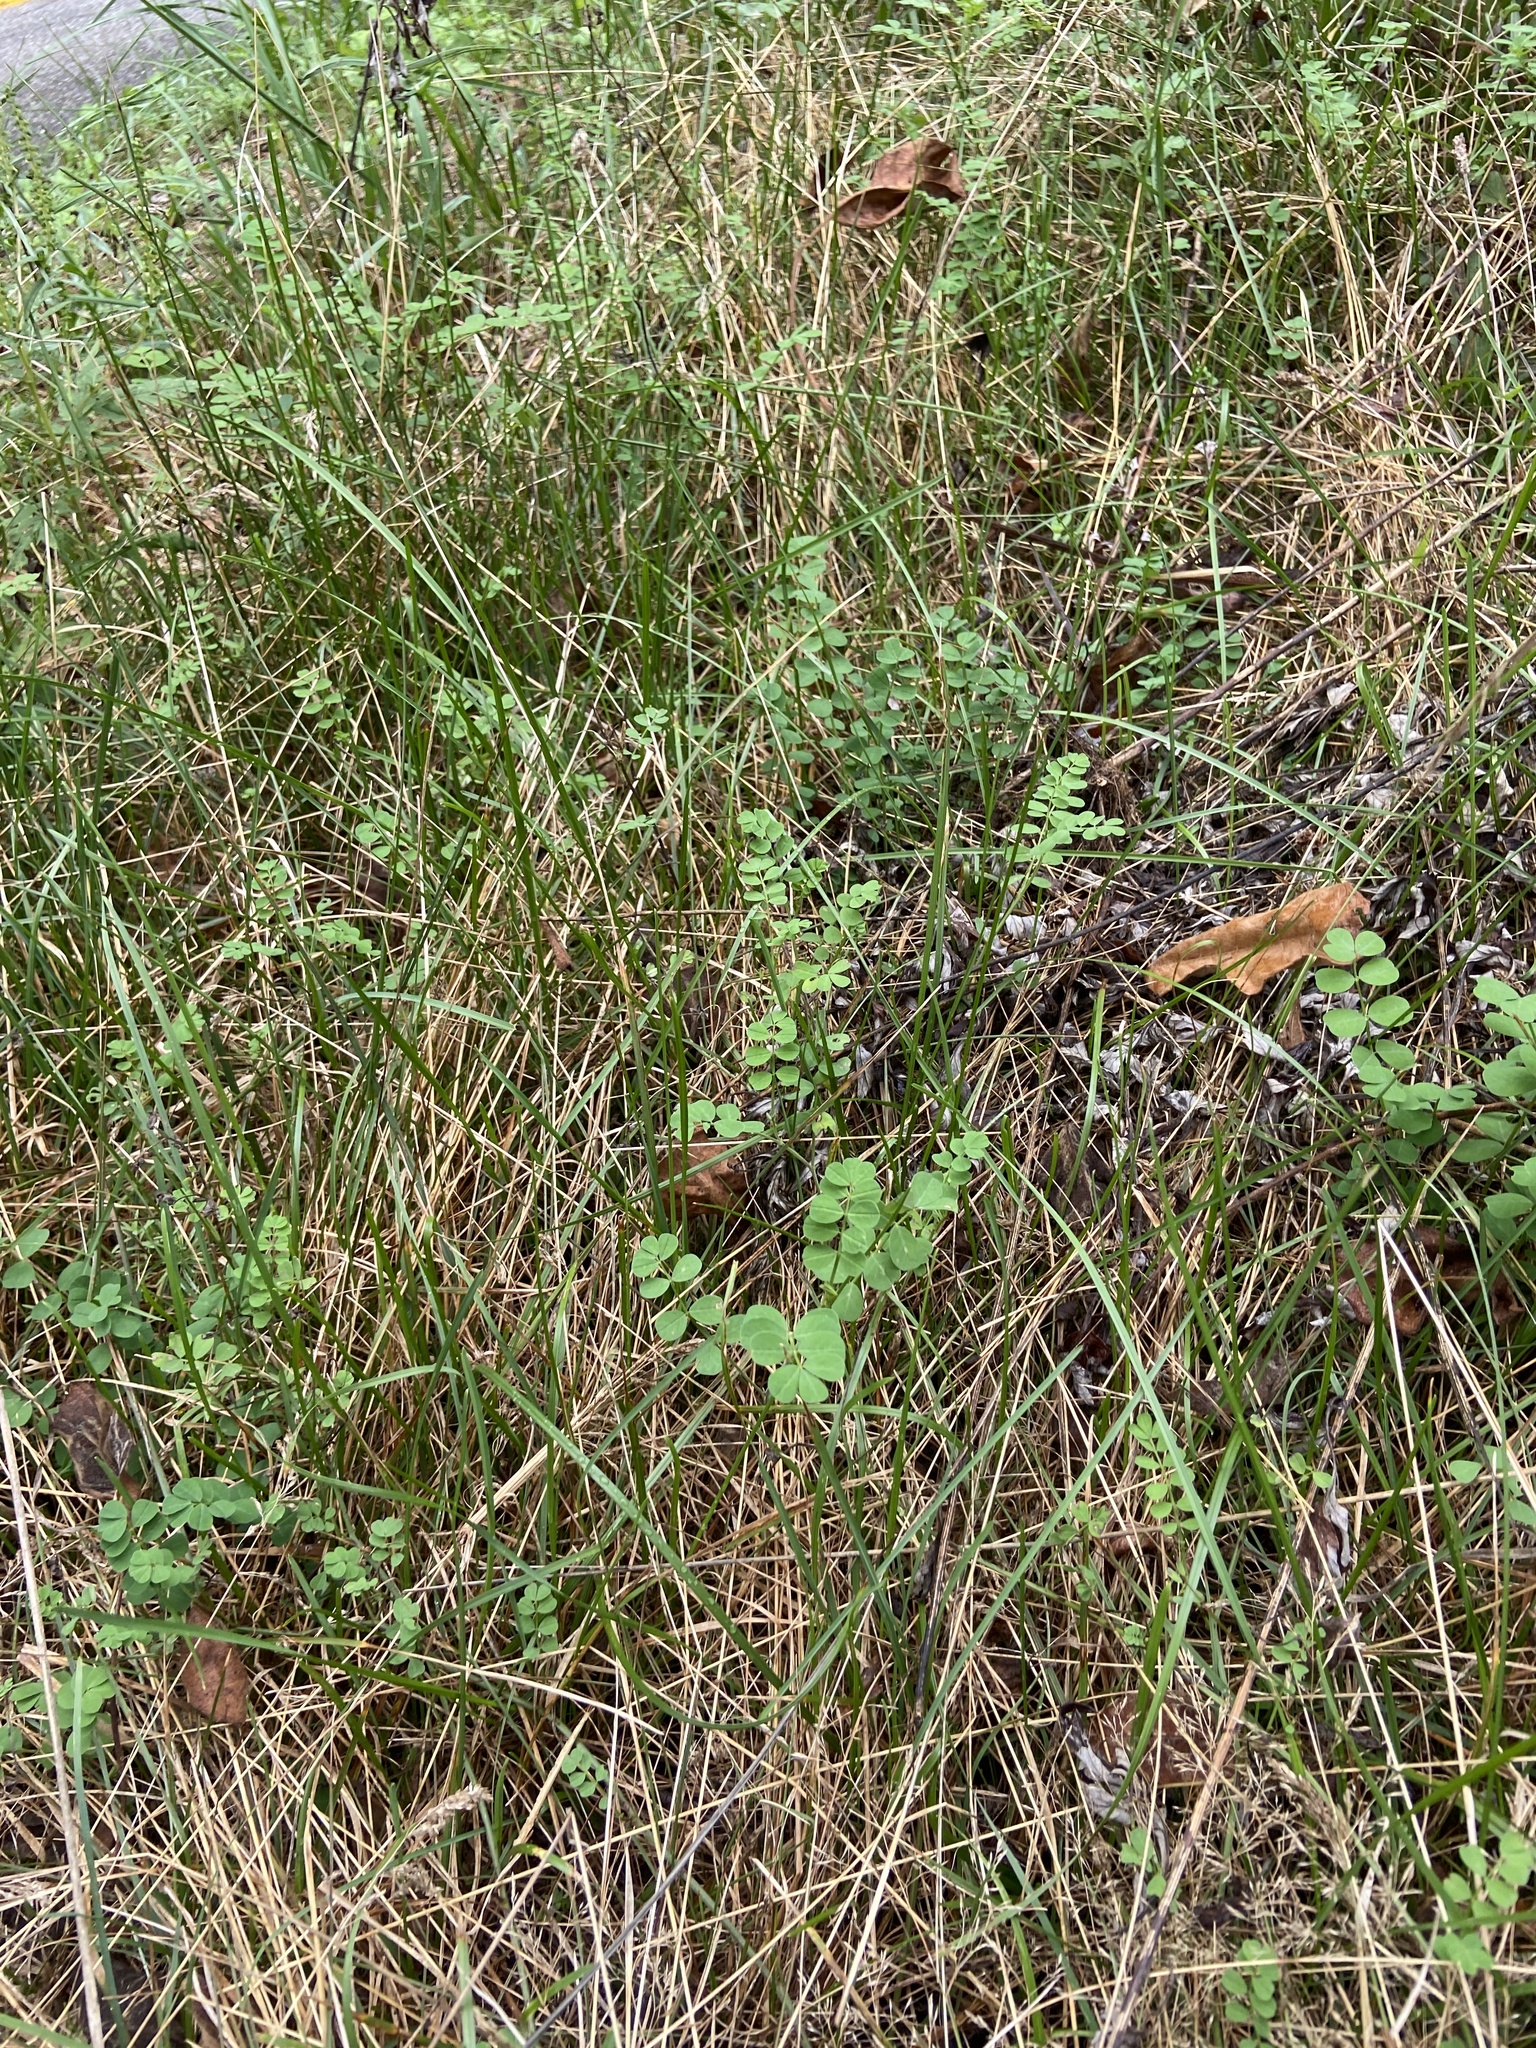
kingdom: Plantae
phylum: Tracheophyta
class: Magnoliopsida
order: Fabales
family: Fabaceae
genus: Coronilla
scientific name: Coronilla varia
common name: Crownvetch
